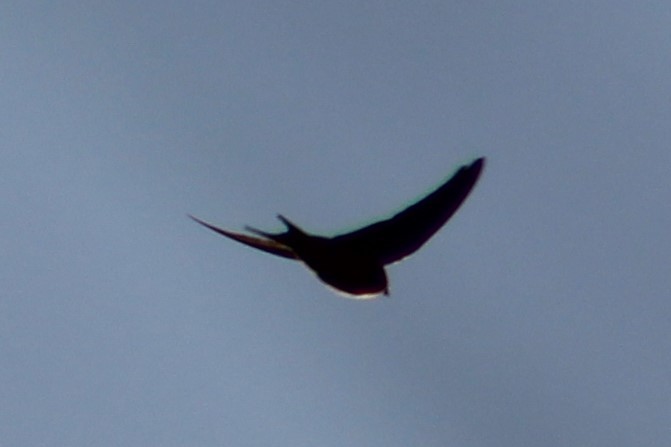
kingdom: Animalia
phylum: Chordata
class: Aves
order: Passeriformes
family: Hirundinidae
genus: Hirundo
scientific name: Hirundo rustica
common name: Barn swallow
